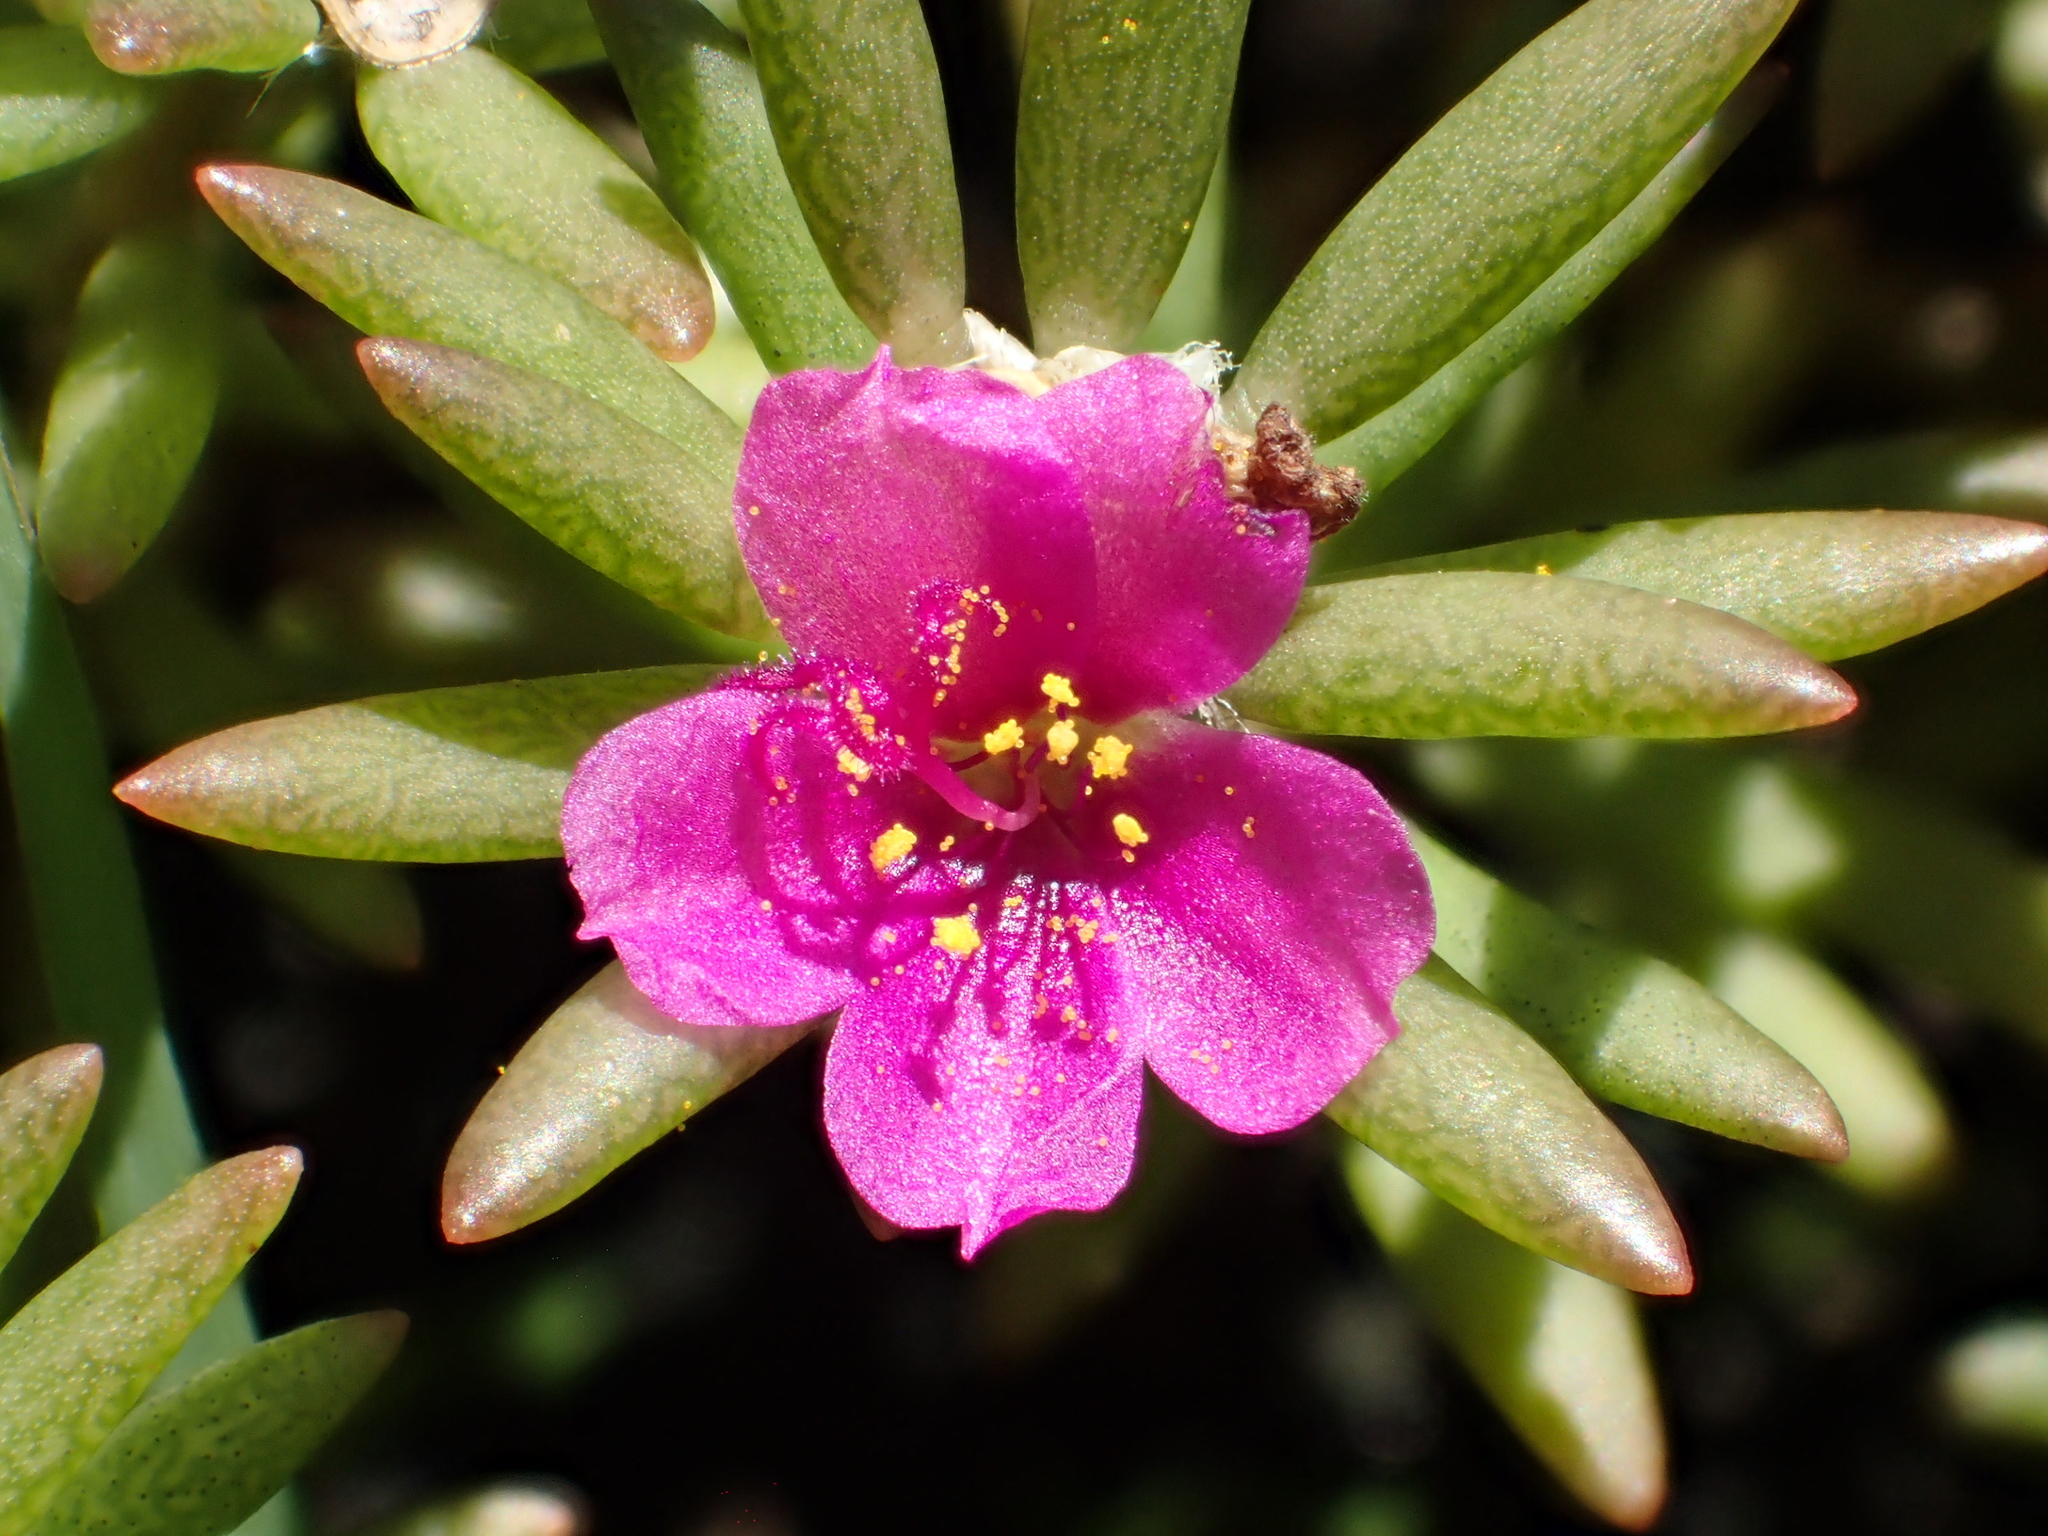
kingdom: Plantae
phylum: Tracheophyta
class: Magnoliopsida
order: Caryophyllales
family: Portulacaceae
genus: Portulaca
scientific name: Portulaca pilosa
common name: Kiss me quick
